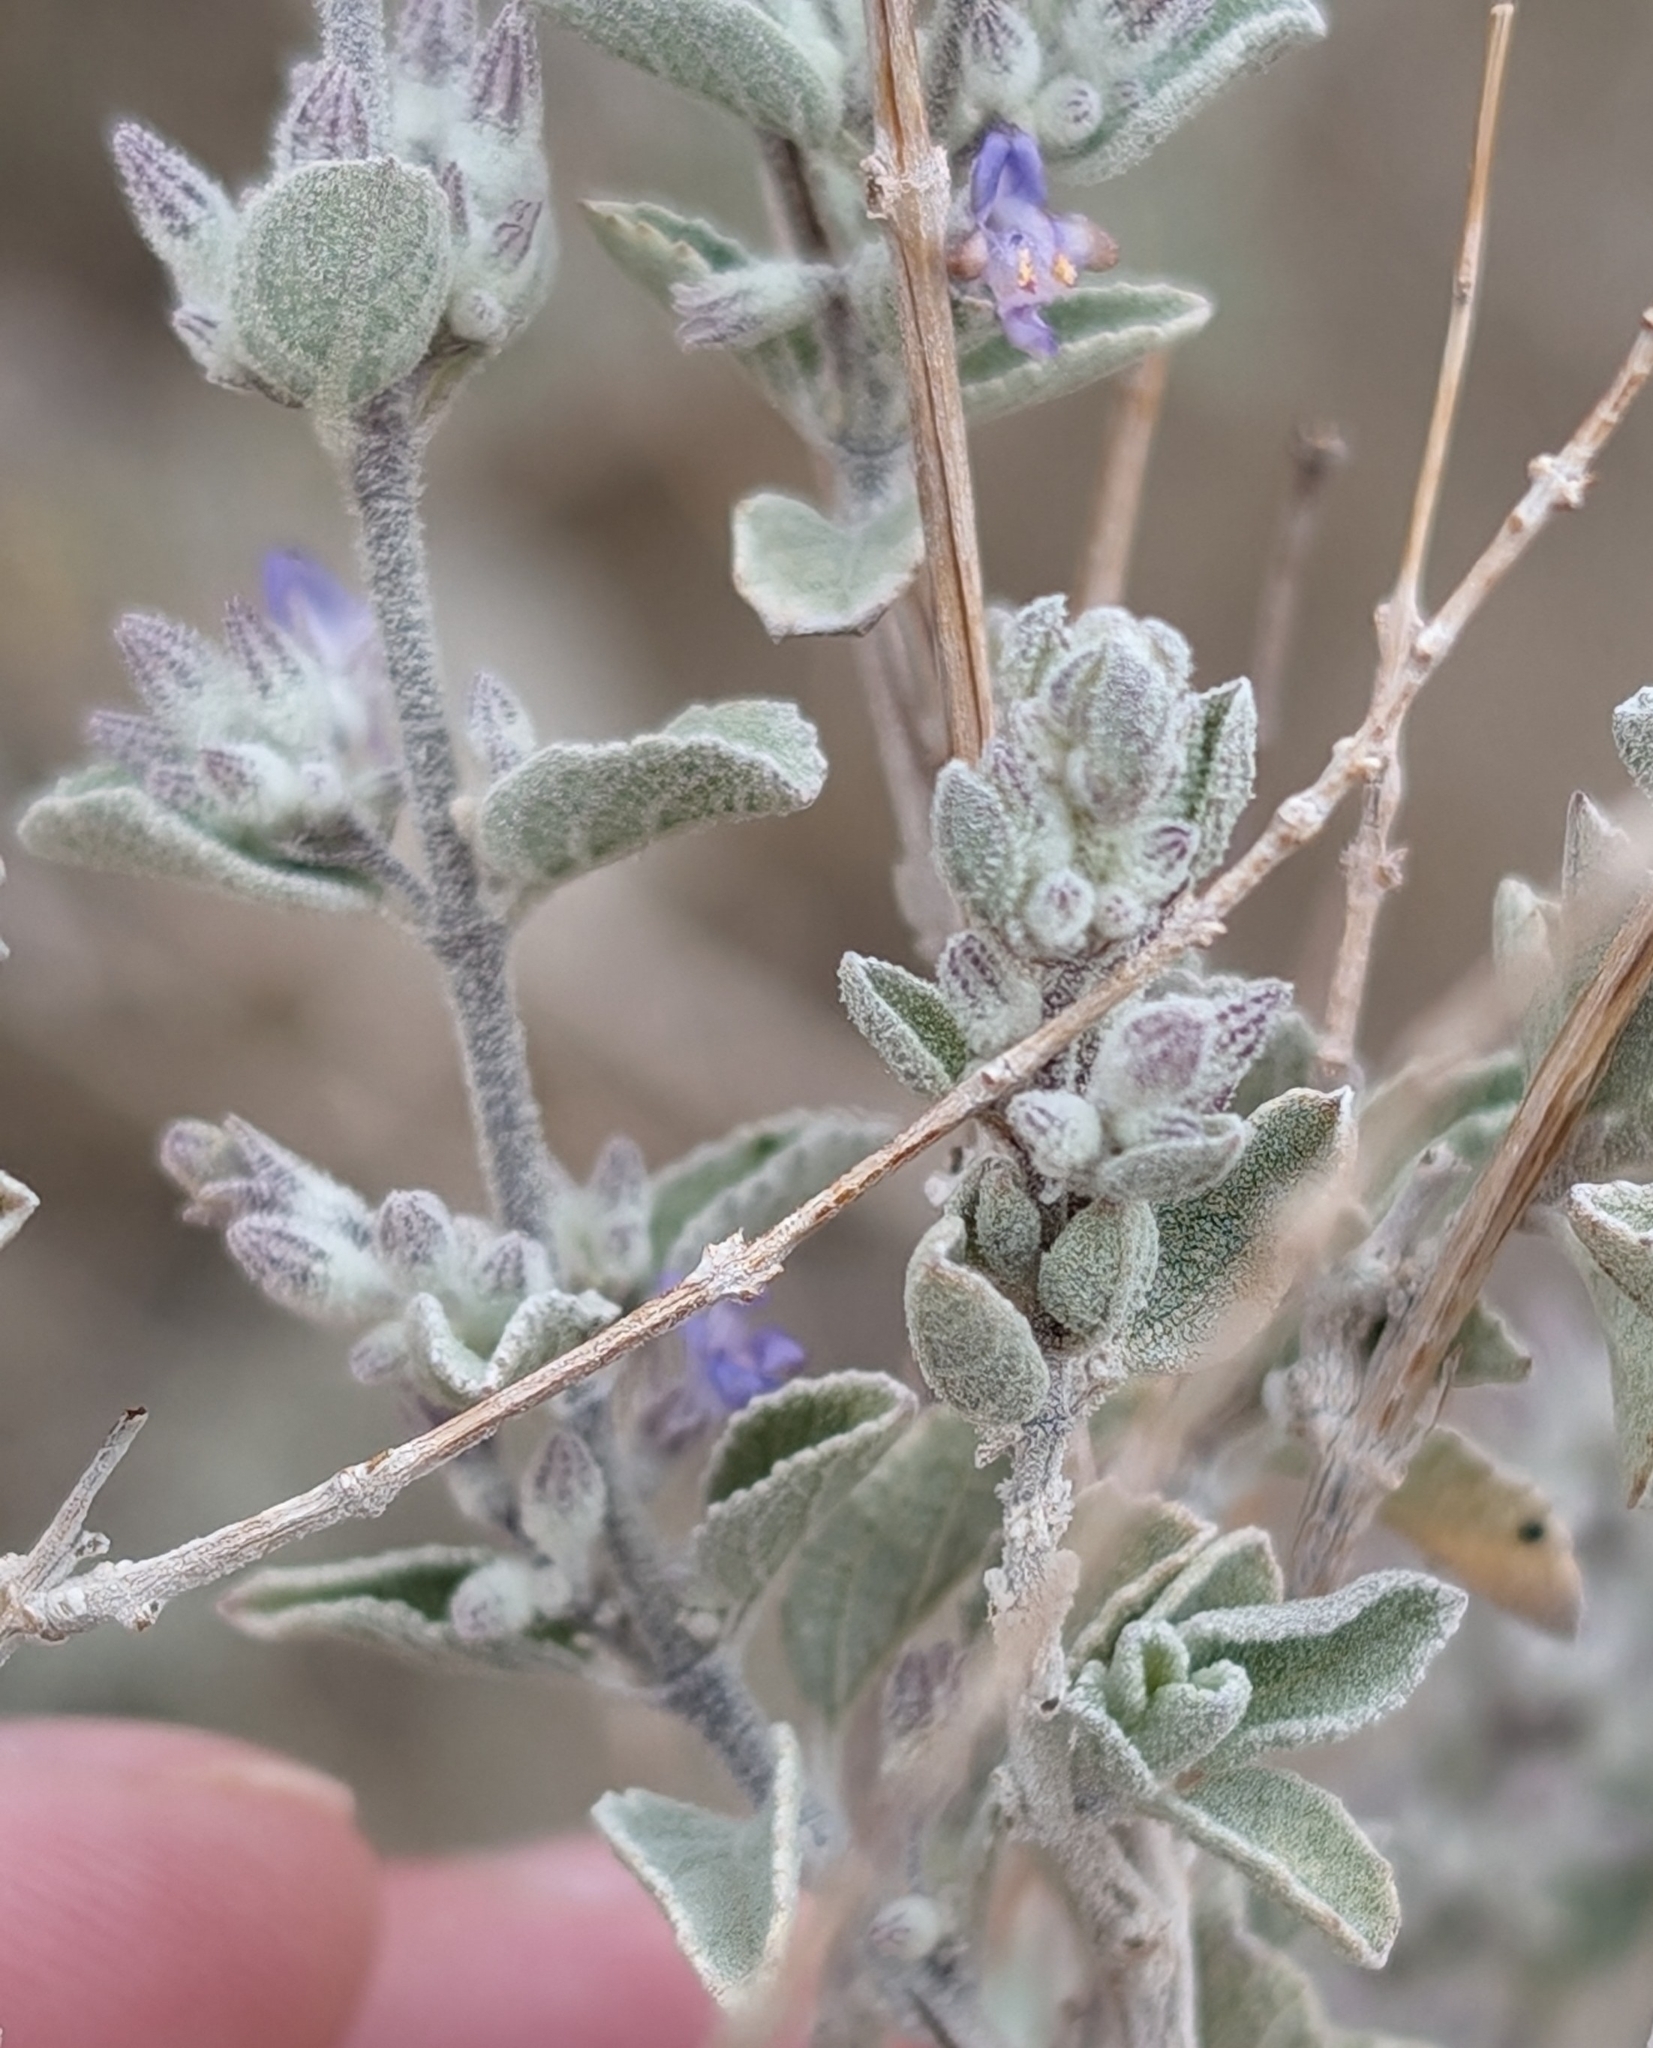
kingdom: Plantae
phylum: Tracheophyta
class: Magnoliopsida
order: Lamiales
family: Lamiaceae
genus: Condea
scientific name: Condea emoryi
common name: Chia
